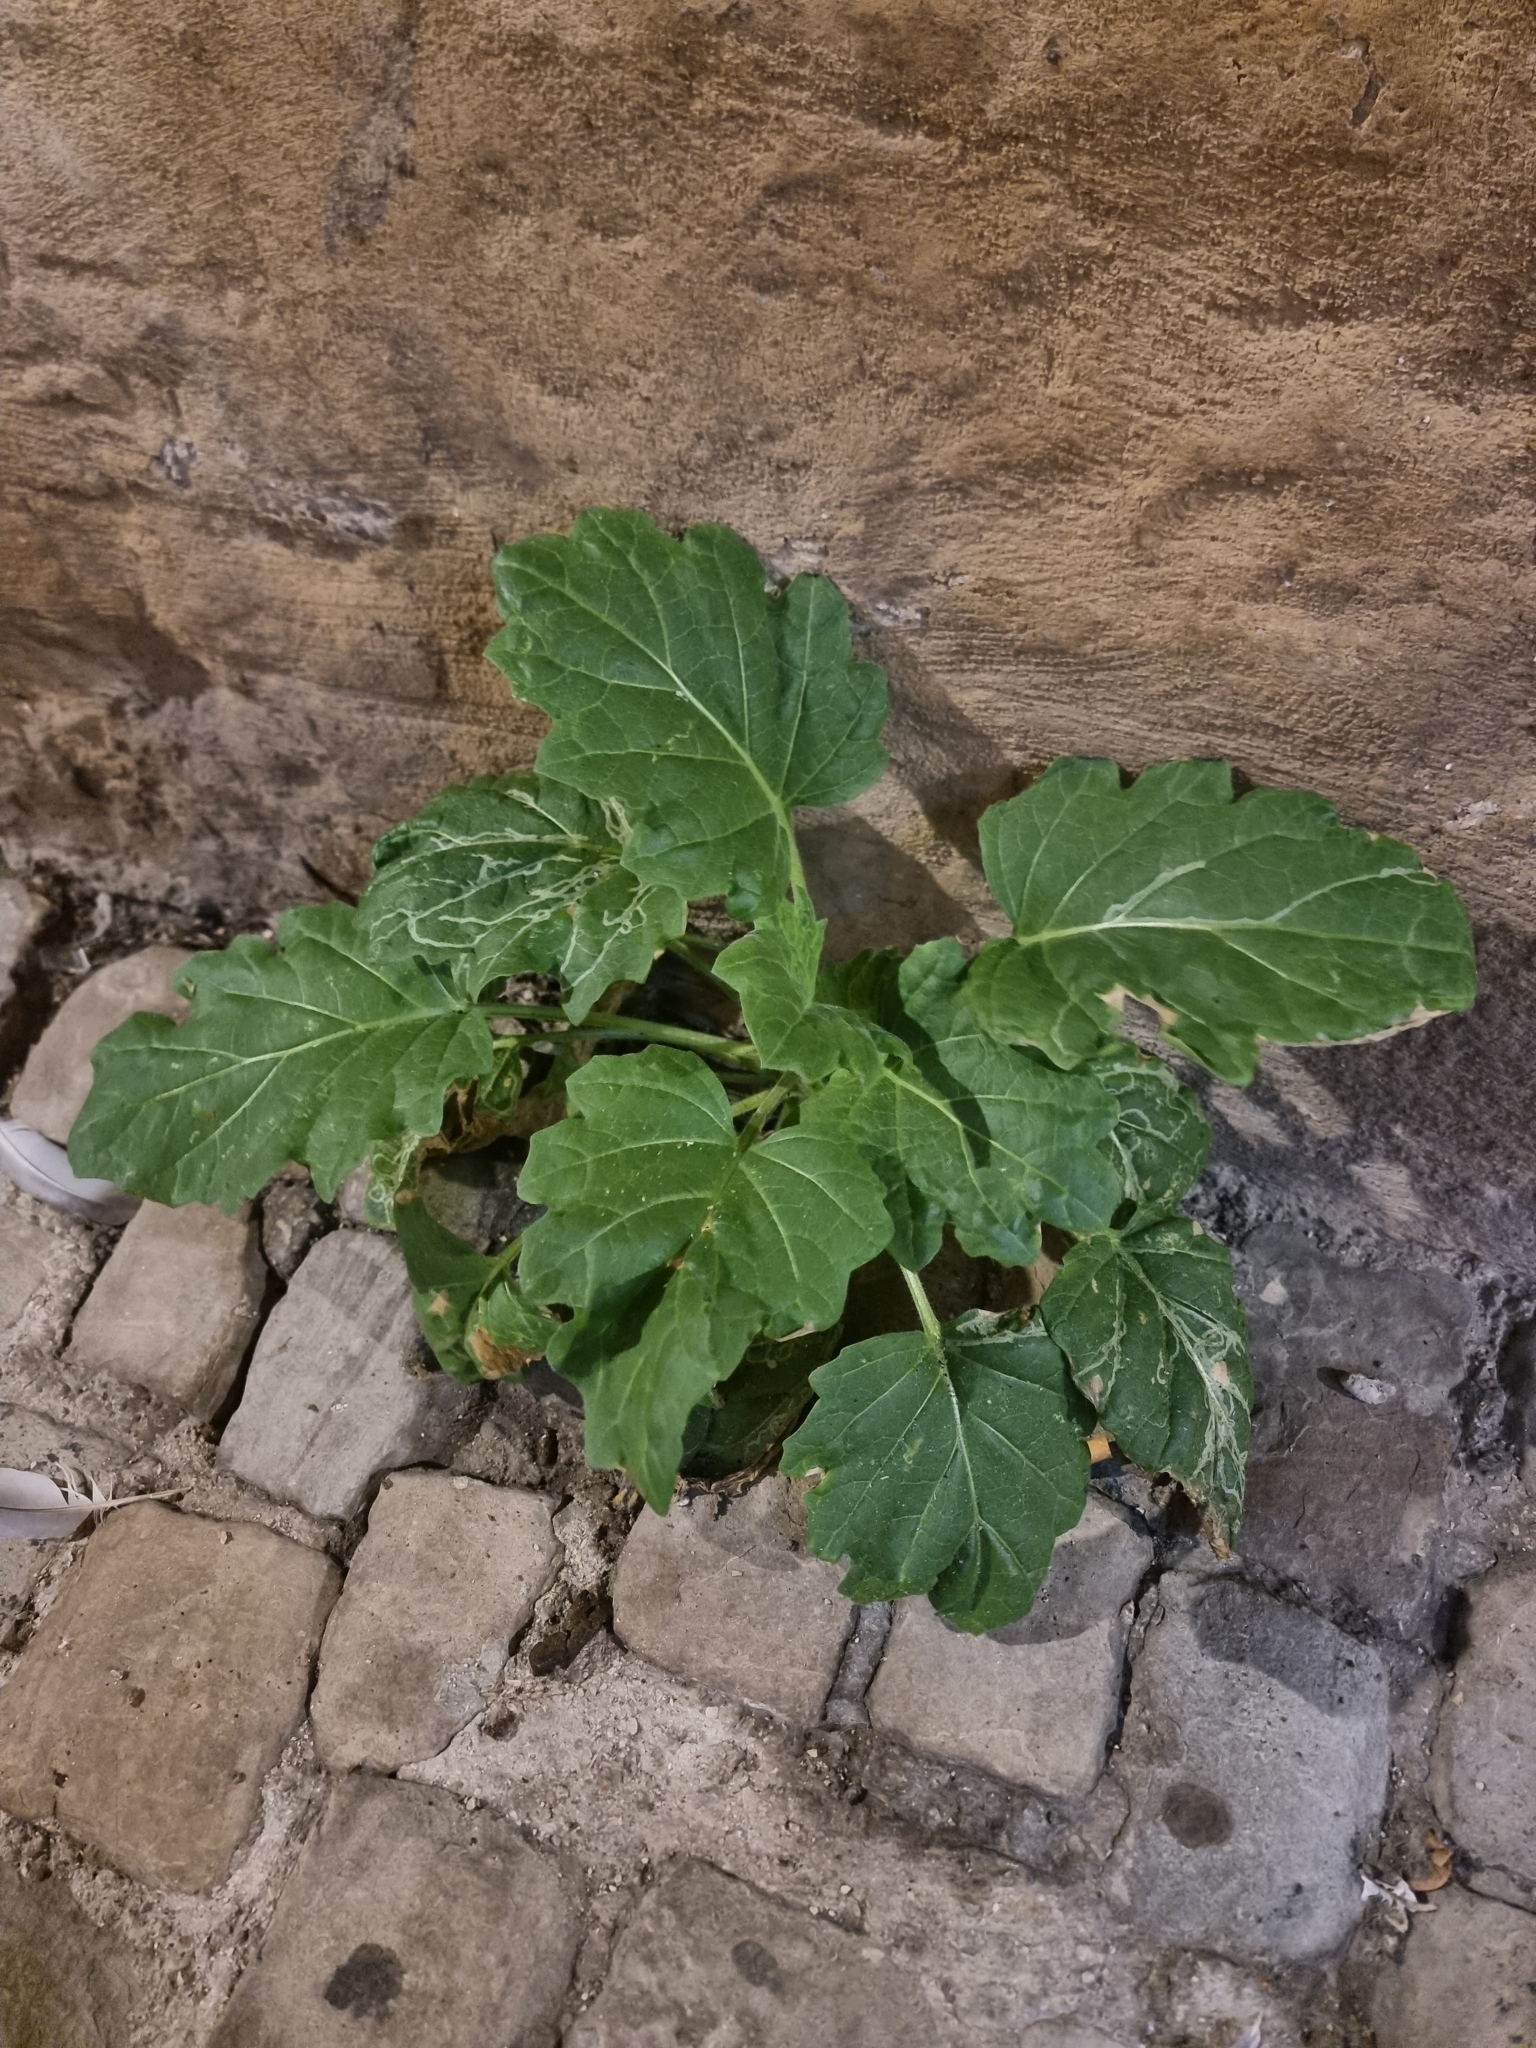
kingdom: Plantae
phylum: Tracheophyta
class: Magnoliopsida
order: Solanales
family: Solanaceae
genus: Hyoscyamus
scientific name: Hyoscyamus albus
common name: White henbane
